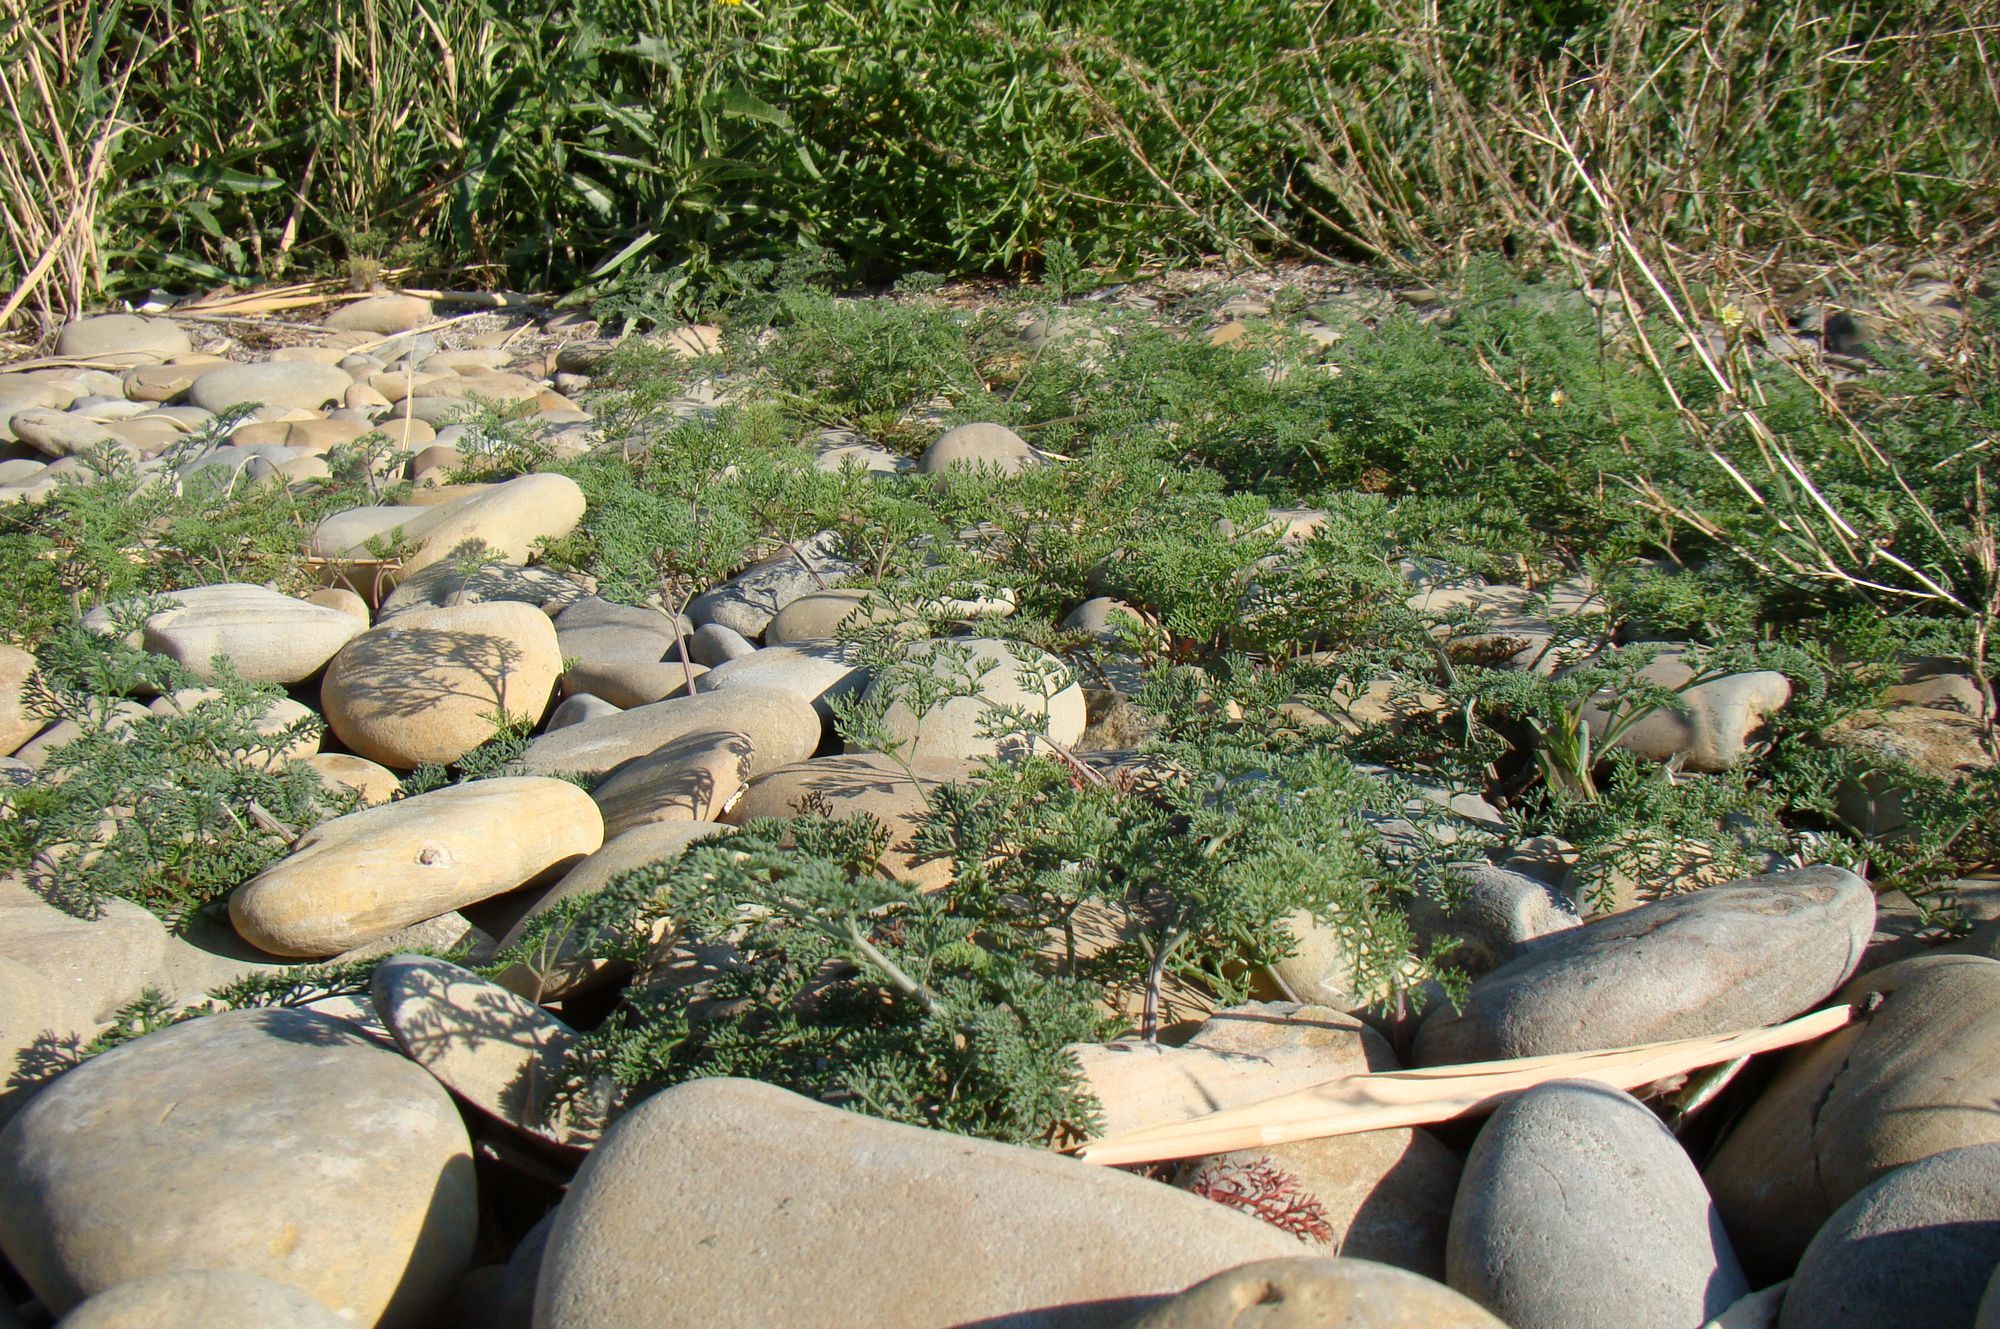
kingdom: Plantae
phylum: Tracheophyta
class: Magnoliopsida
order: Apiales
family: Apiaceae
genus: Astrodaucus
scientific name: Astrodaucus littoralis
